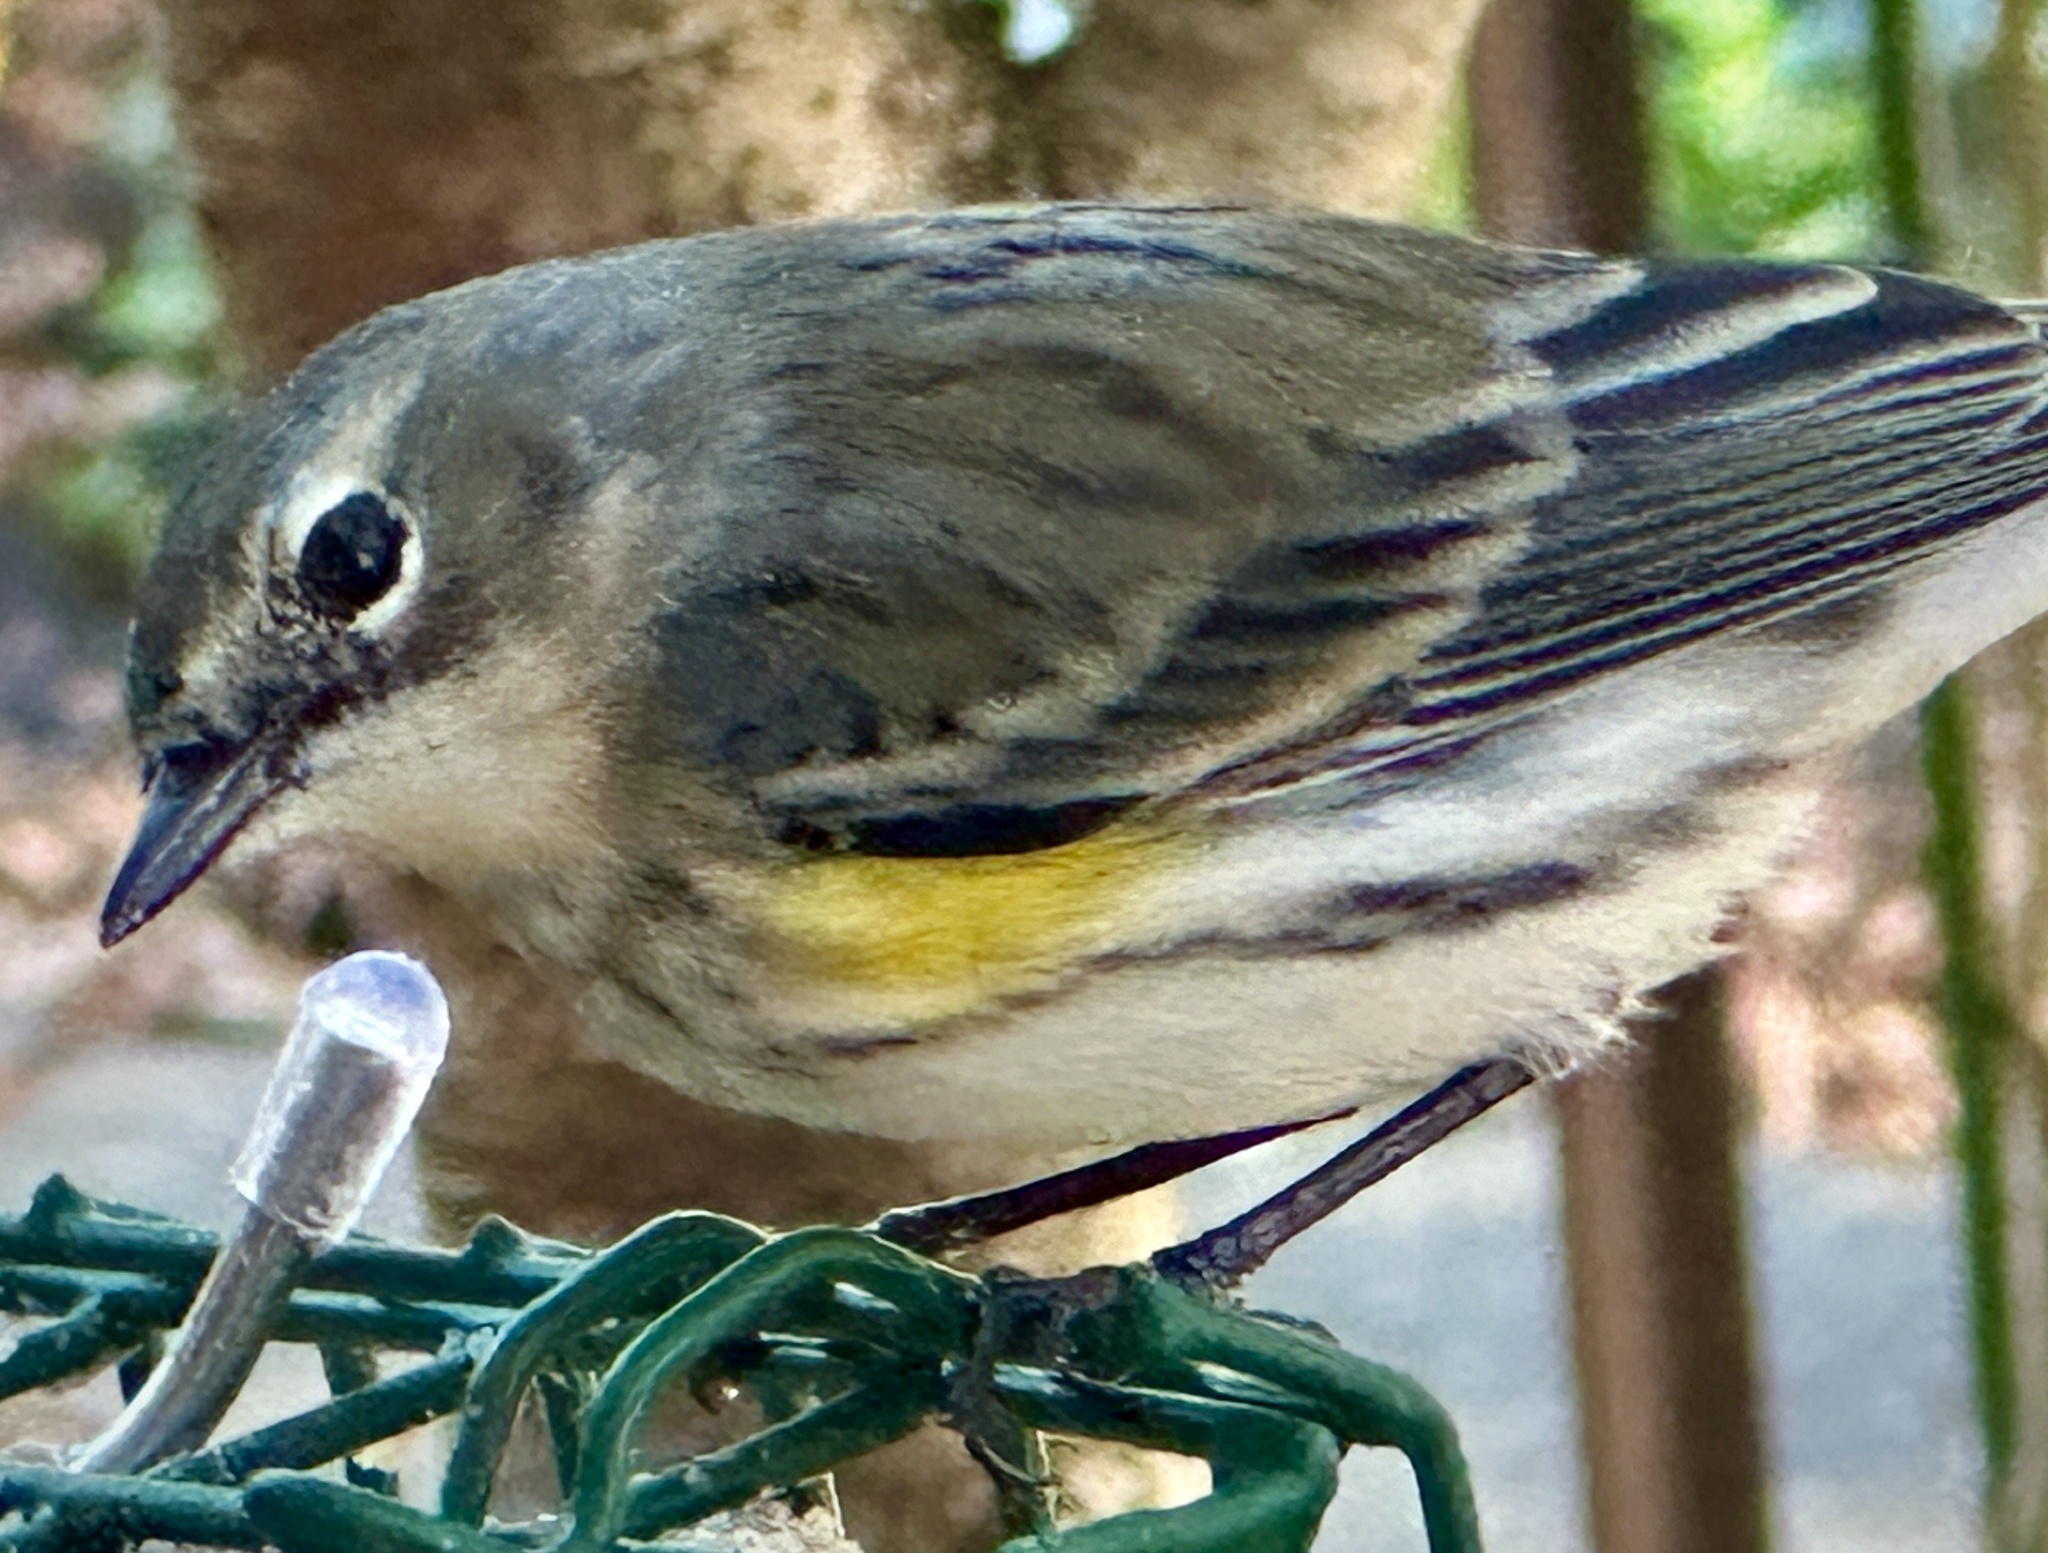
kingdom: Animalia
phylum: Chordata
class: Aves
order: Passeriformes
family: Parulidae
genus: Setophaga
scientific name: Setophaga coronata
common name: Myrtle warbler
